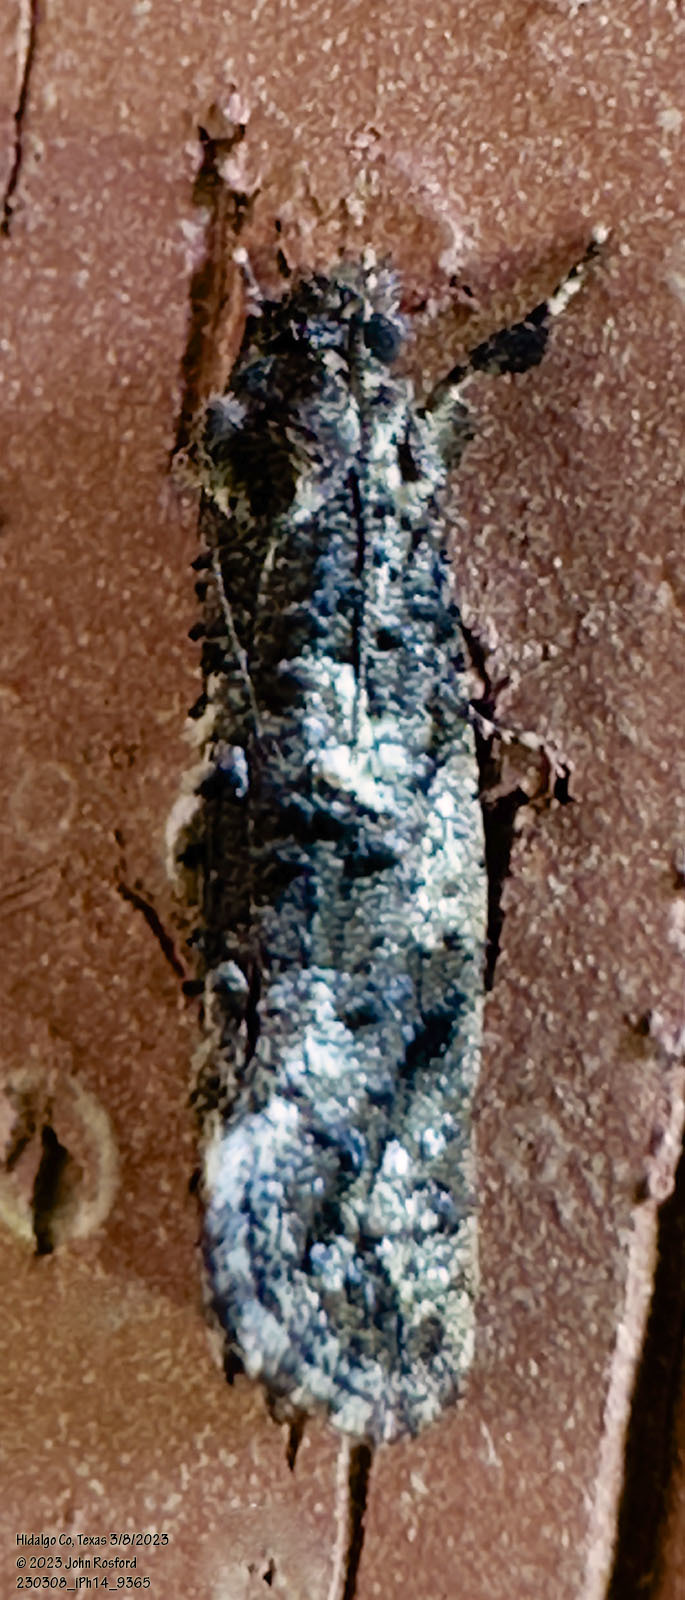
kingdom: Animalia
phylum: Arthropoda
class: Insecta
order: Lepidoptera
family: Tineidae
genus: Acrolophus
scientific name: Acrolophus cressoni
